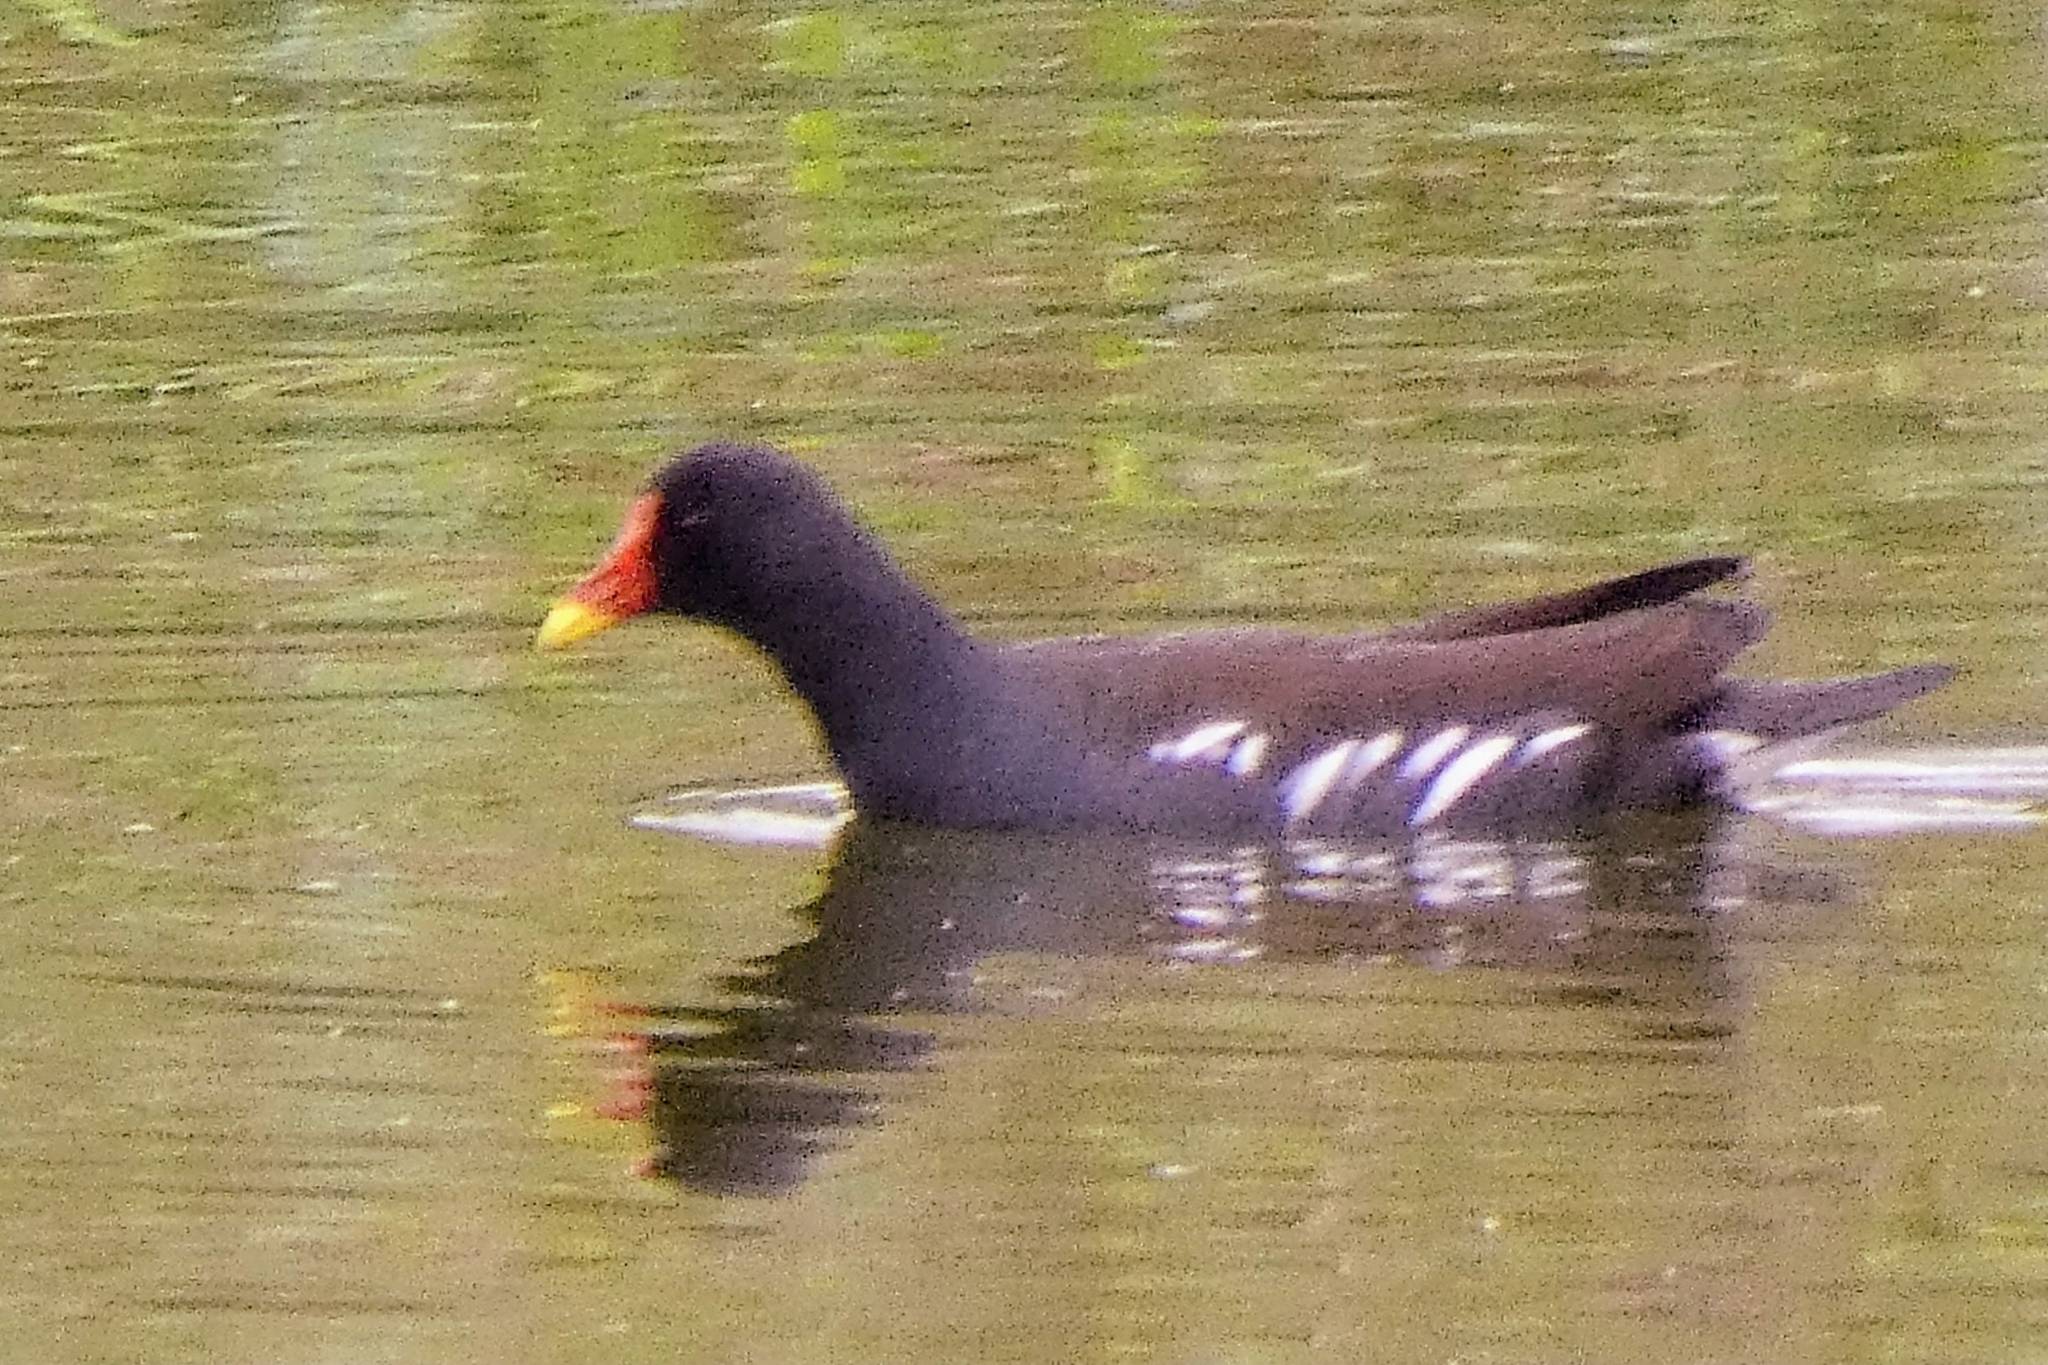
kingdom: Animalia
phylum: Chordata
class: Aves
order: Gruiformes
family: Rallidae
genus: Gallinula
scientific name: Gallinula chloropus
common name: Common moorhen
